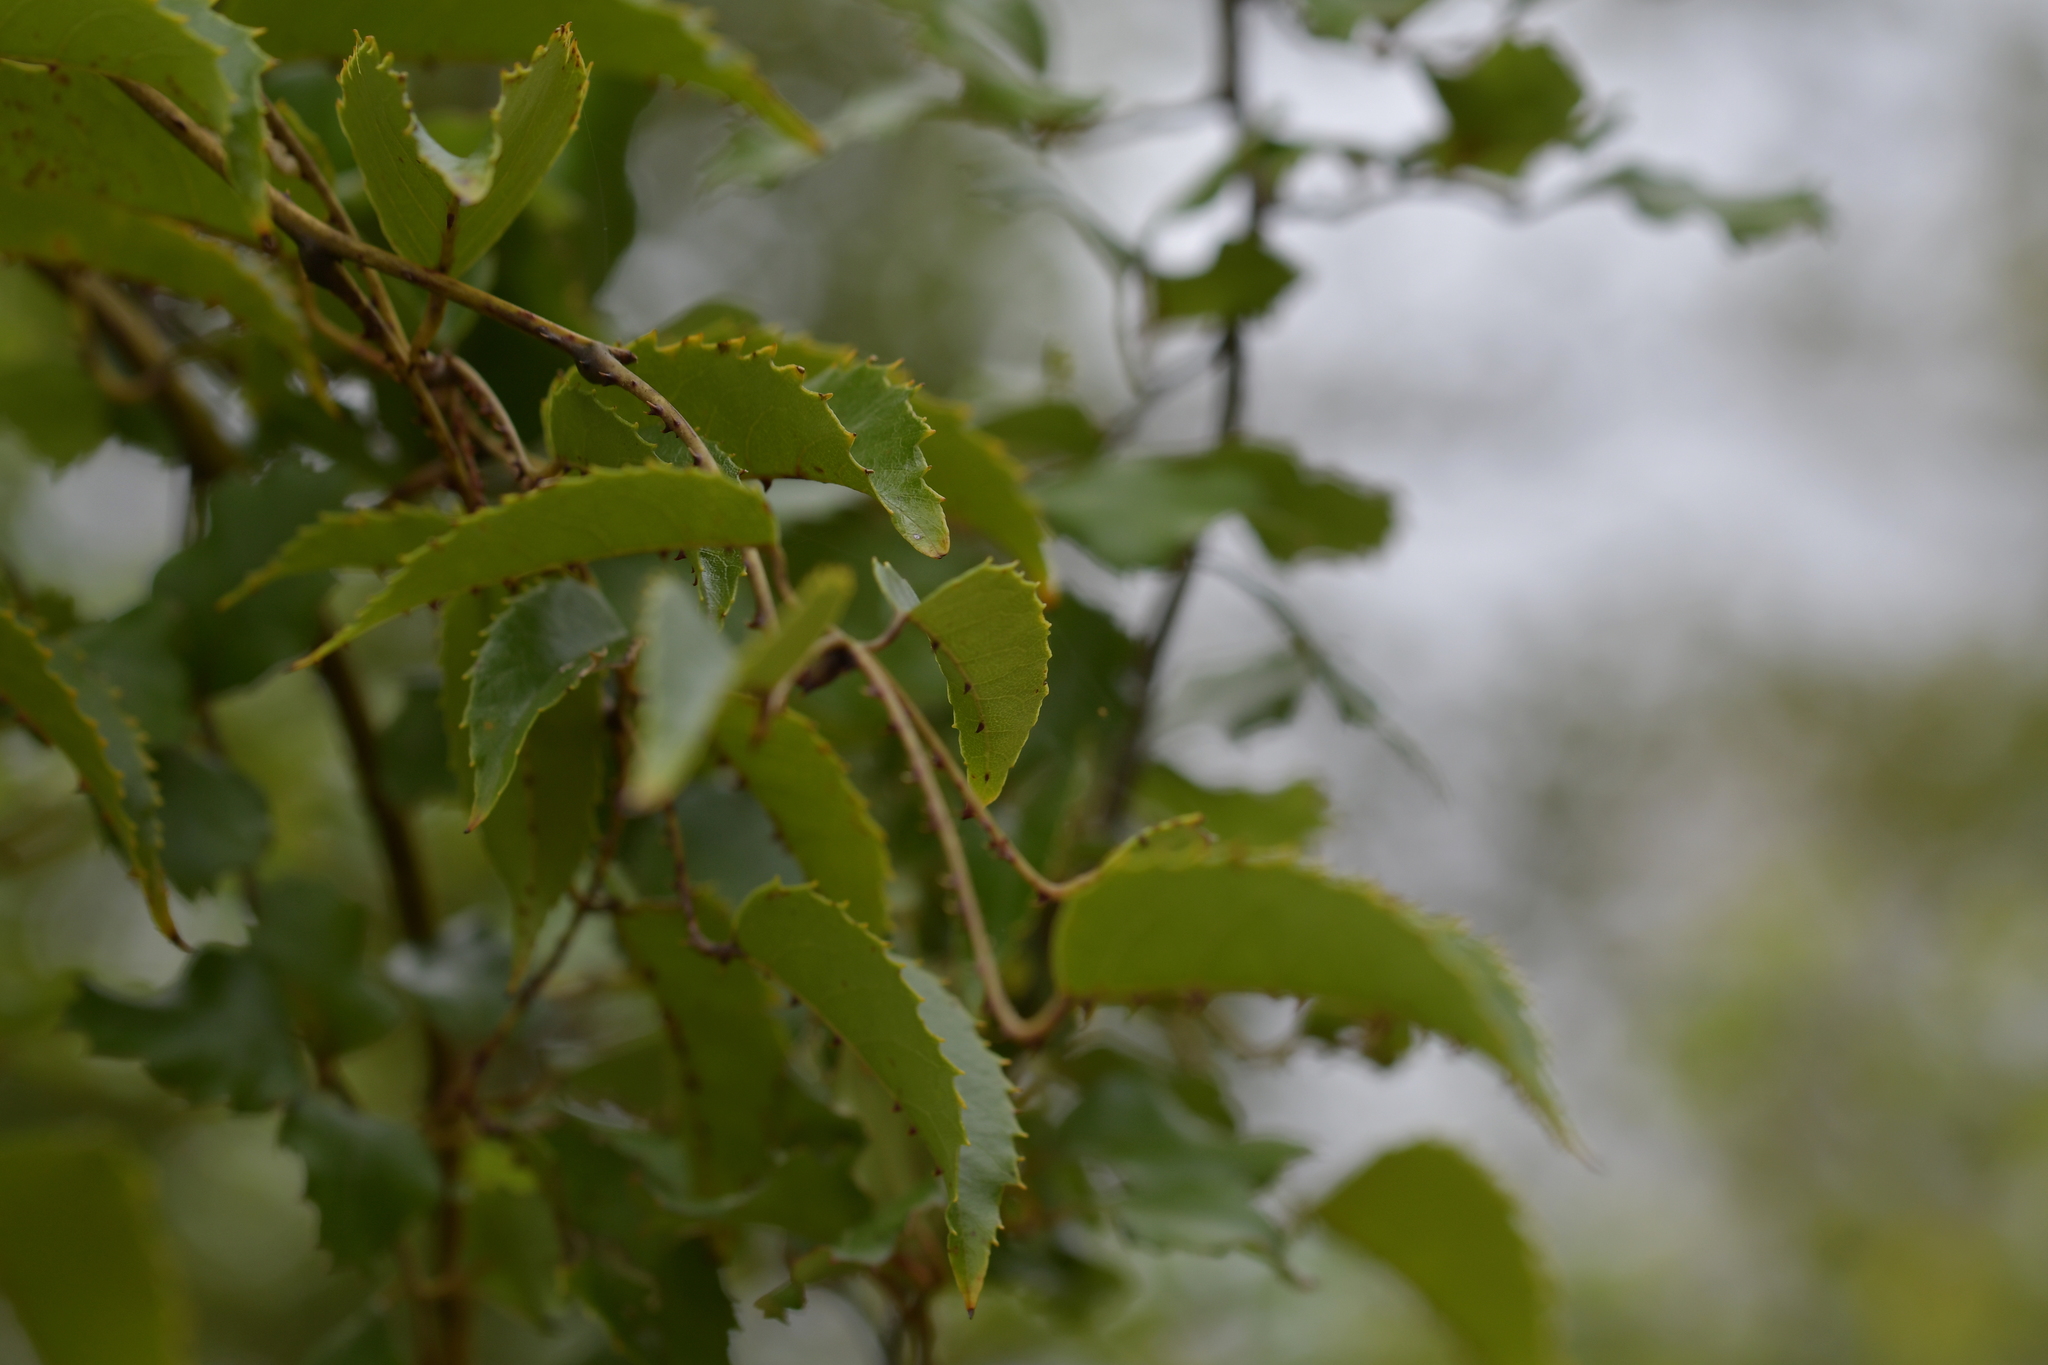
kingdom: Plantae
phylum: Tracheophyta
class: Magnoliopsida
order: Rosales
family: Rosaceae
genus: Rubus
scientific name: Rubus cissoides
